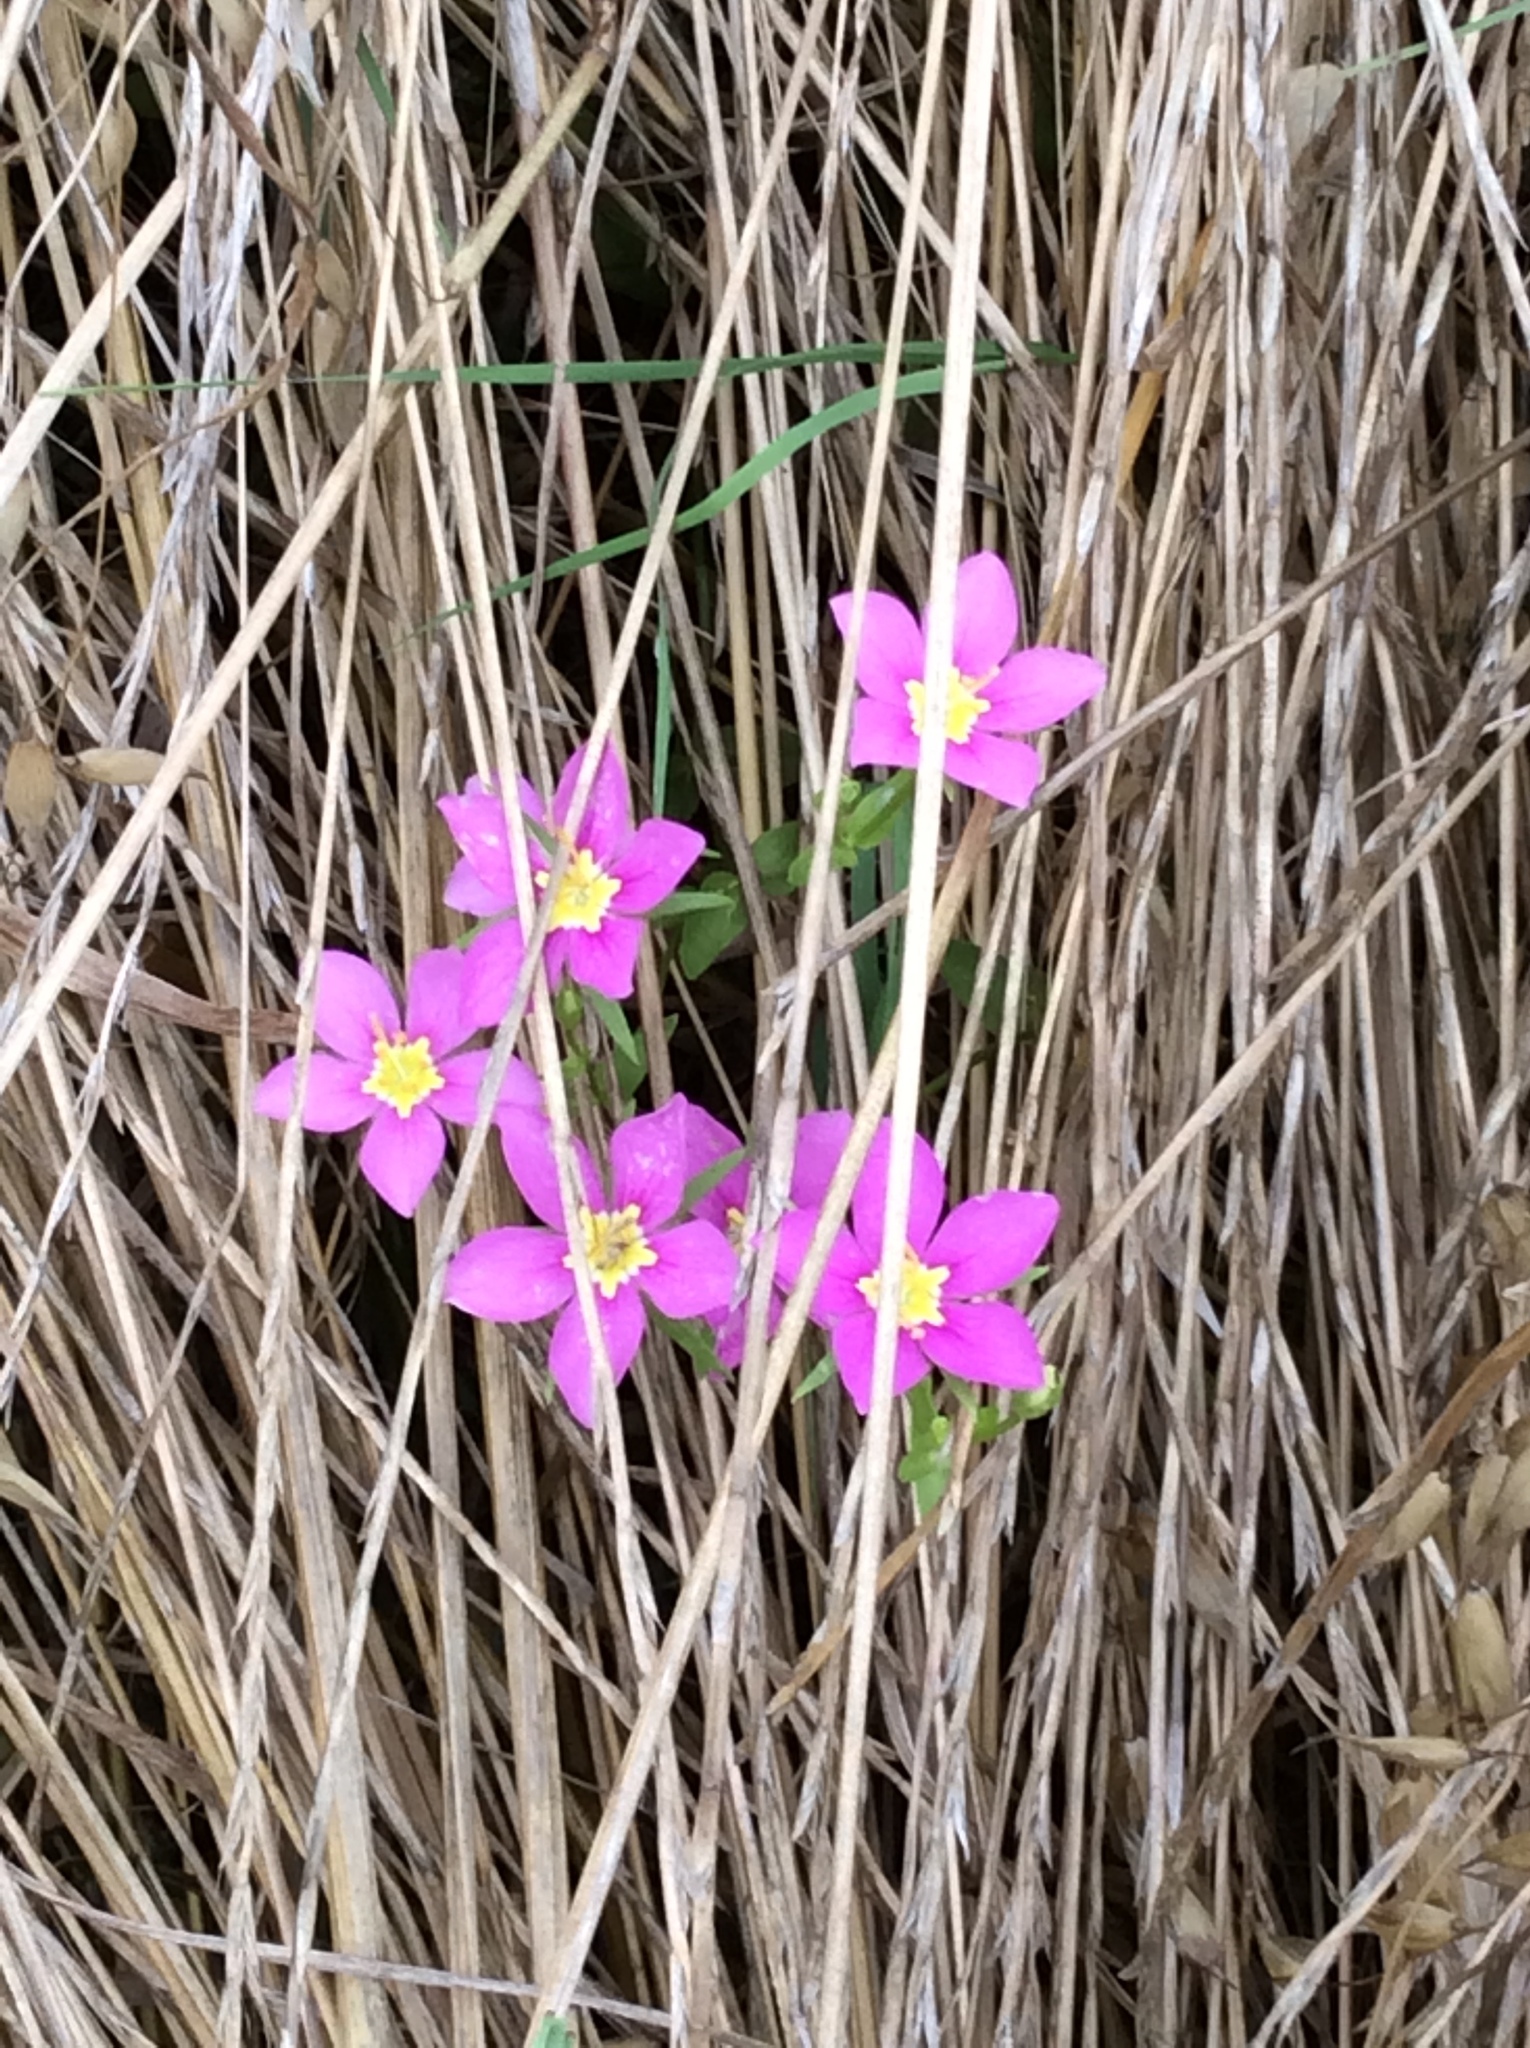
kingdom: Plantae
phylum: Tracheophyta
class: Magnoliopsida
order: Gentianales
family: Gentianaceae
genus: Sabatia
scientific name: Sabatia campestris
